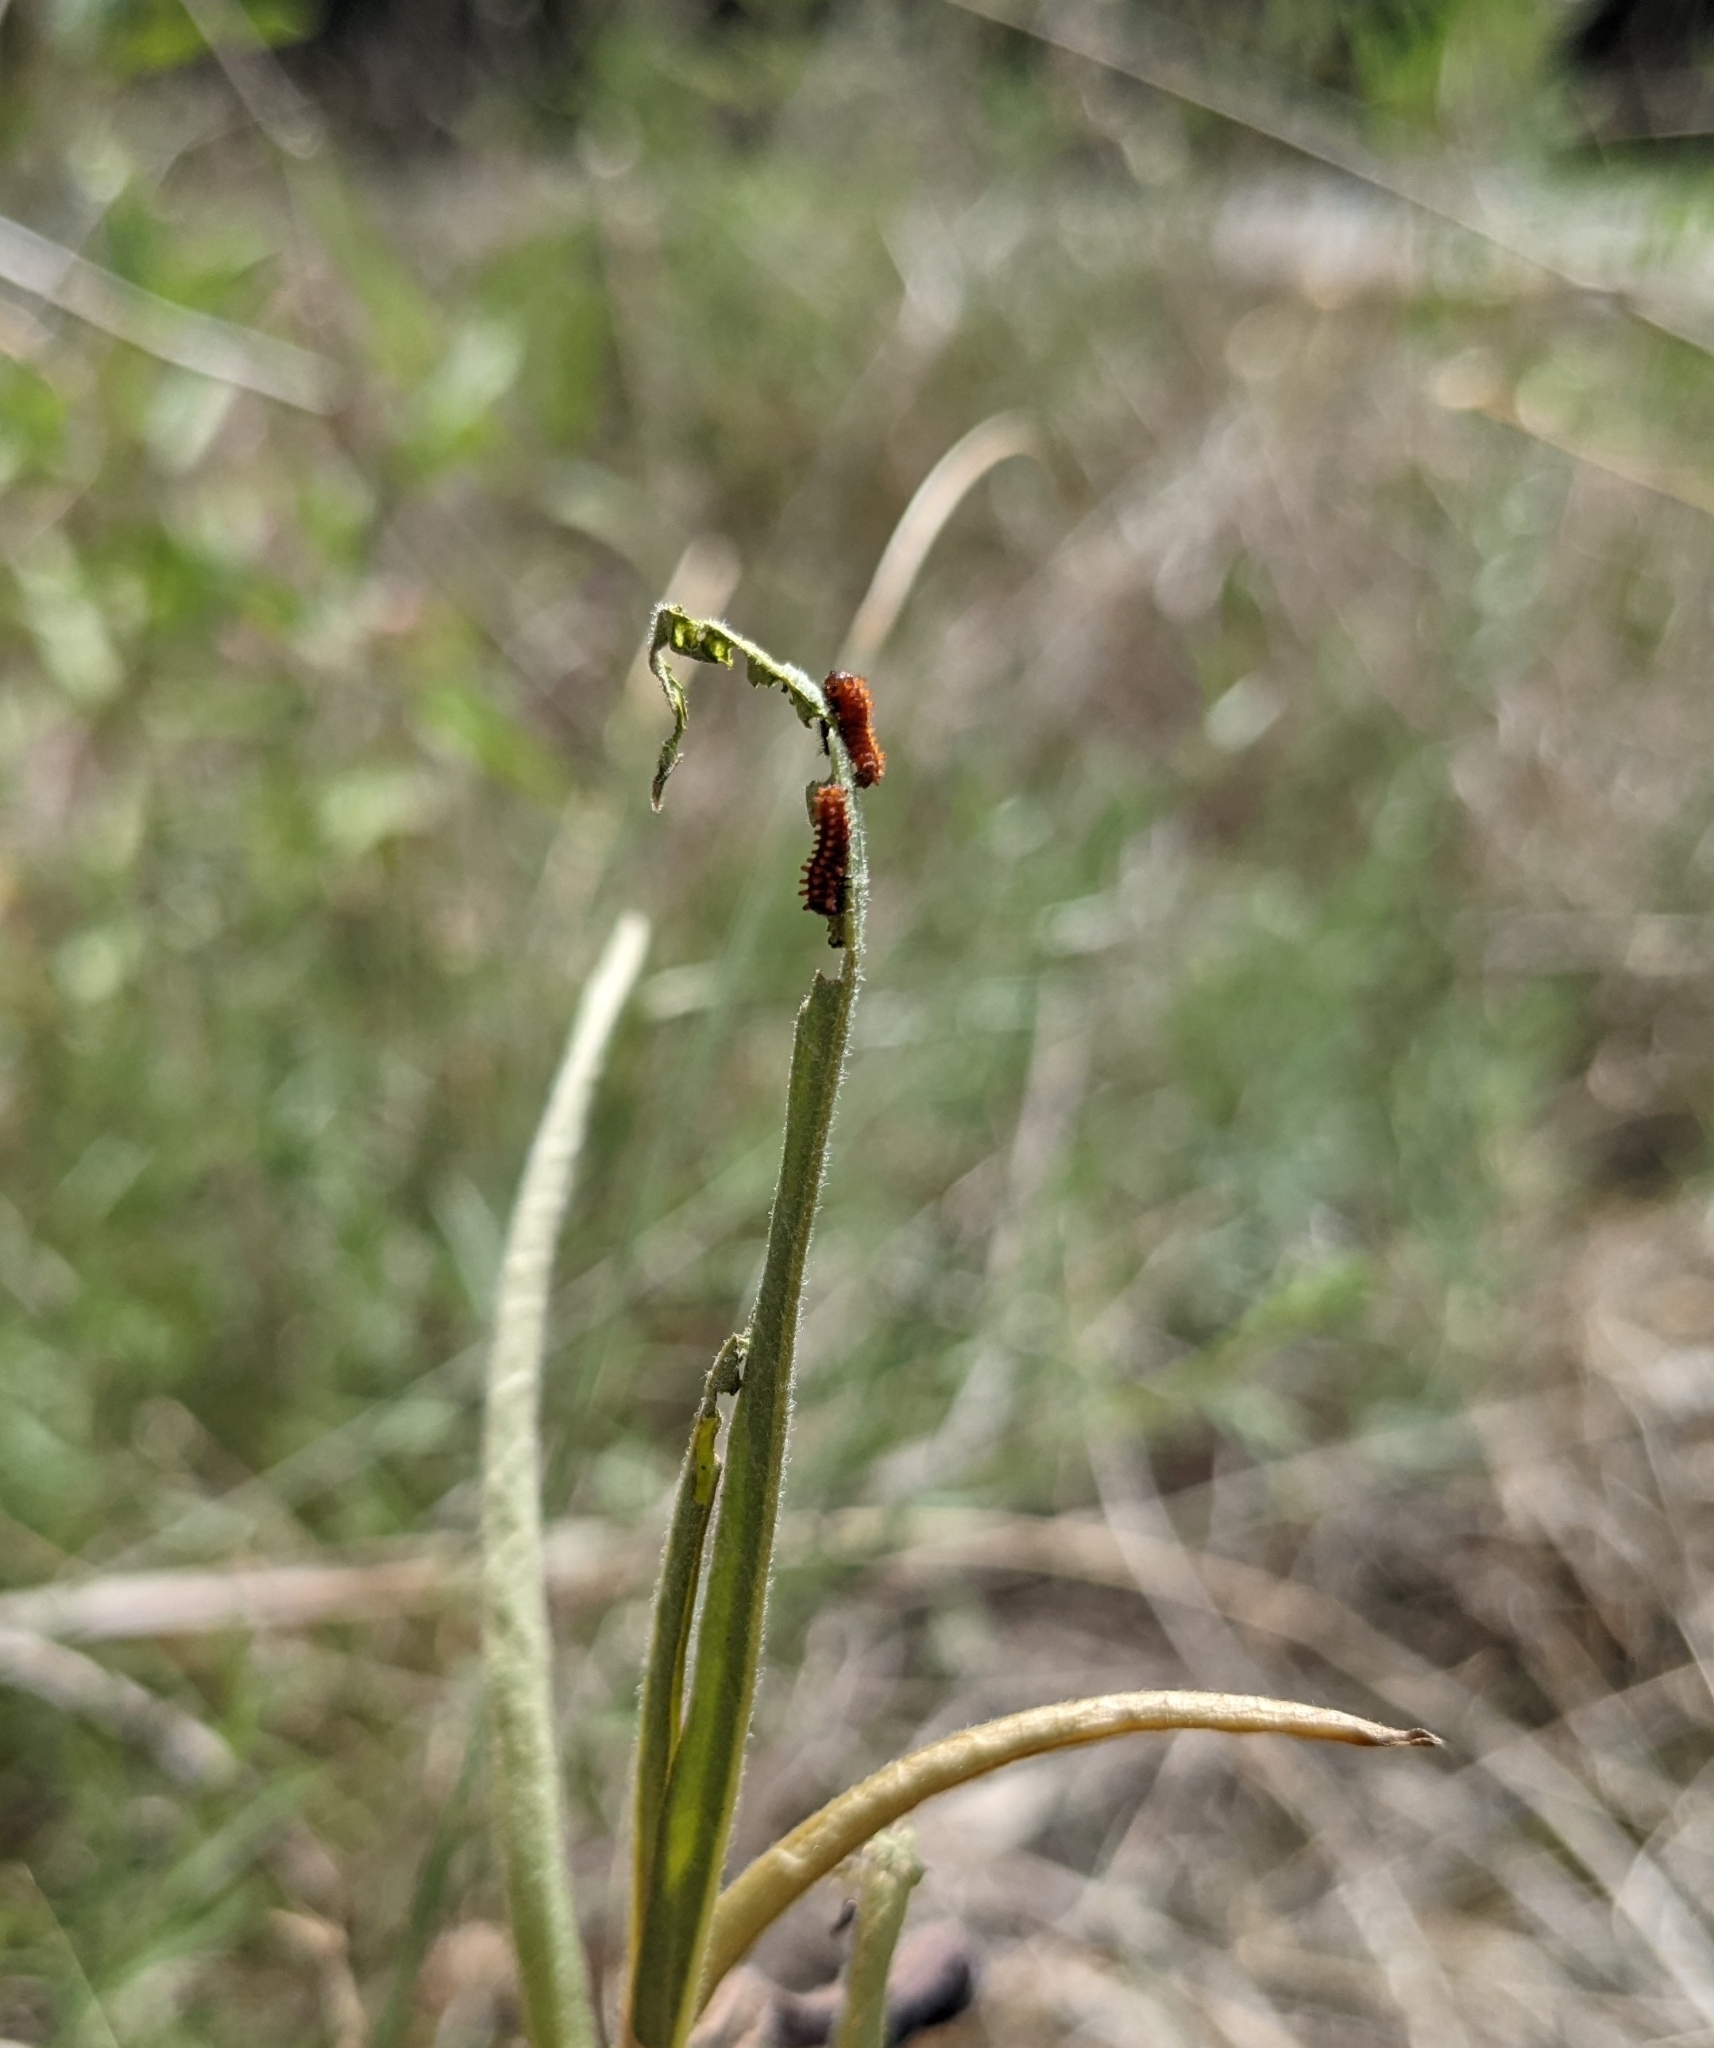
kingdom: Animalia
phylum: Arthropoda
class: Insecta
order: Lepidoptera
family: Papilionidae
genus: Battus
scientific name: Battus philenor
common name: Pipevine swallowtail
